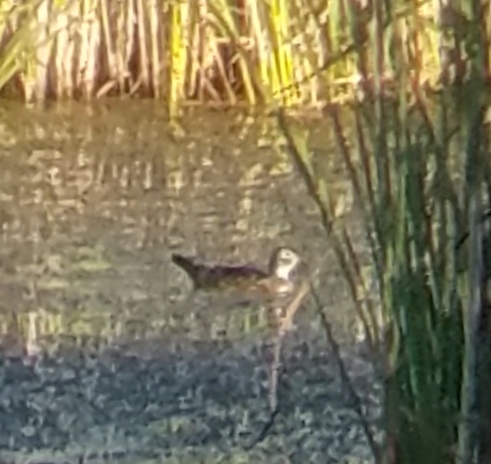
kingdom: Animalia
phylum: Chordata
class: Aves
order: Anseriformes
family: Anatidae
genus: Aix
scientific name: Aix sponsa
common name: Wood duck
